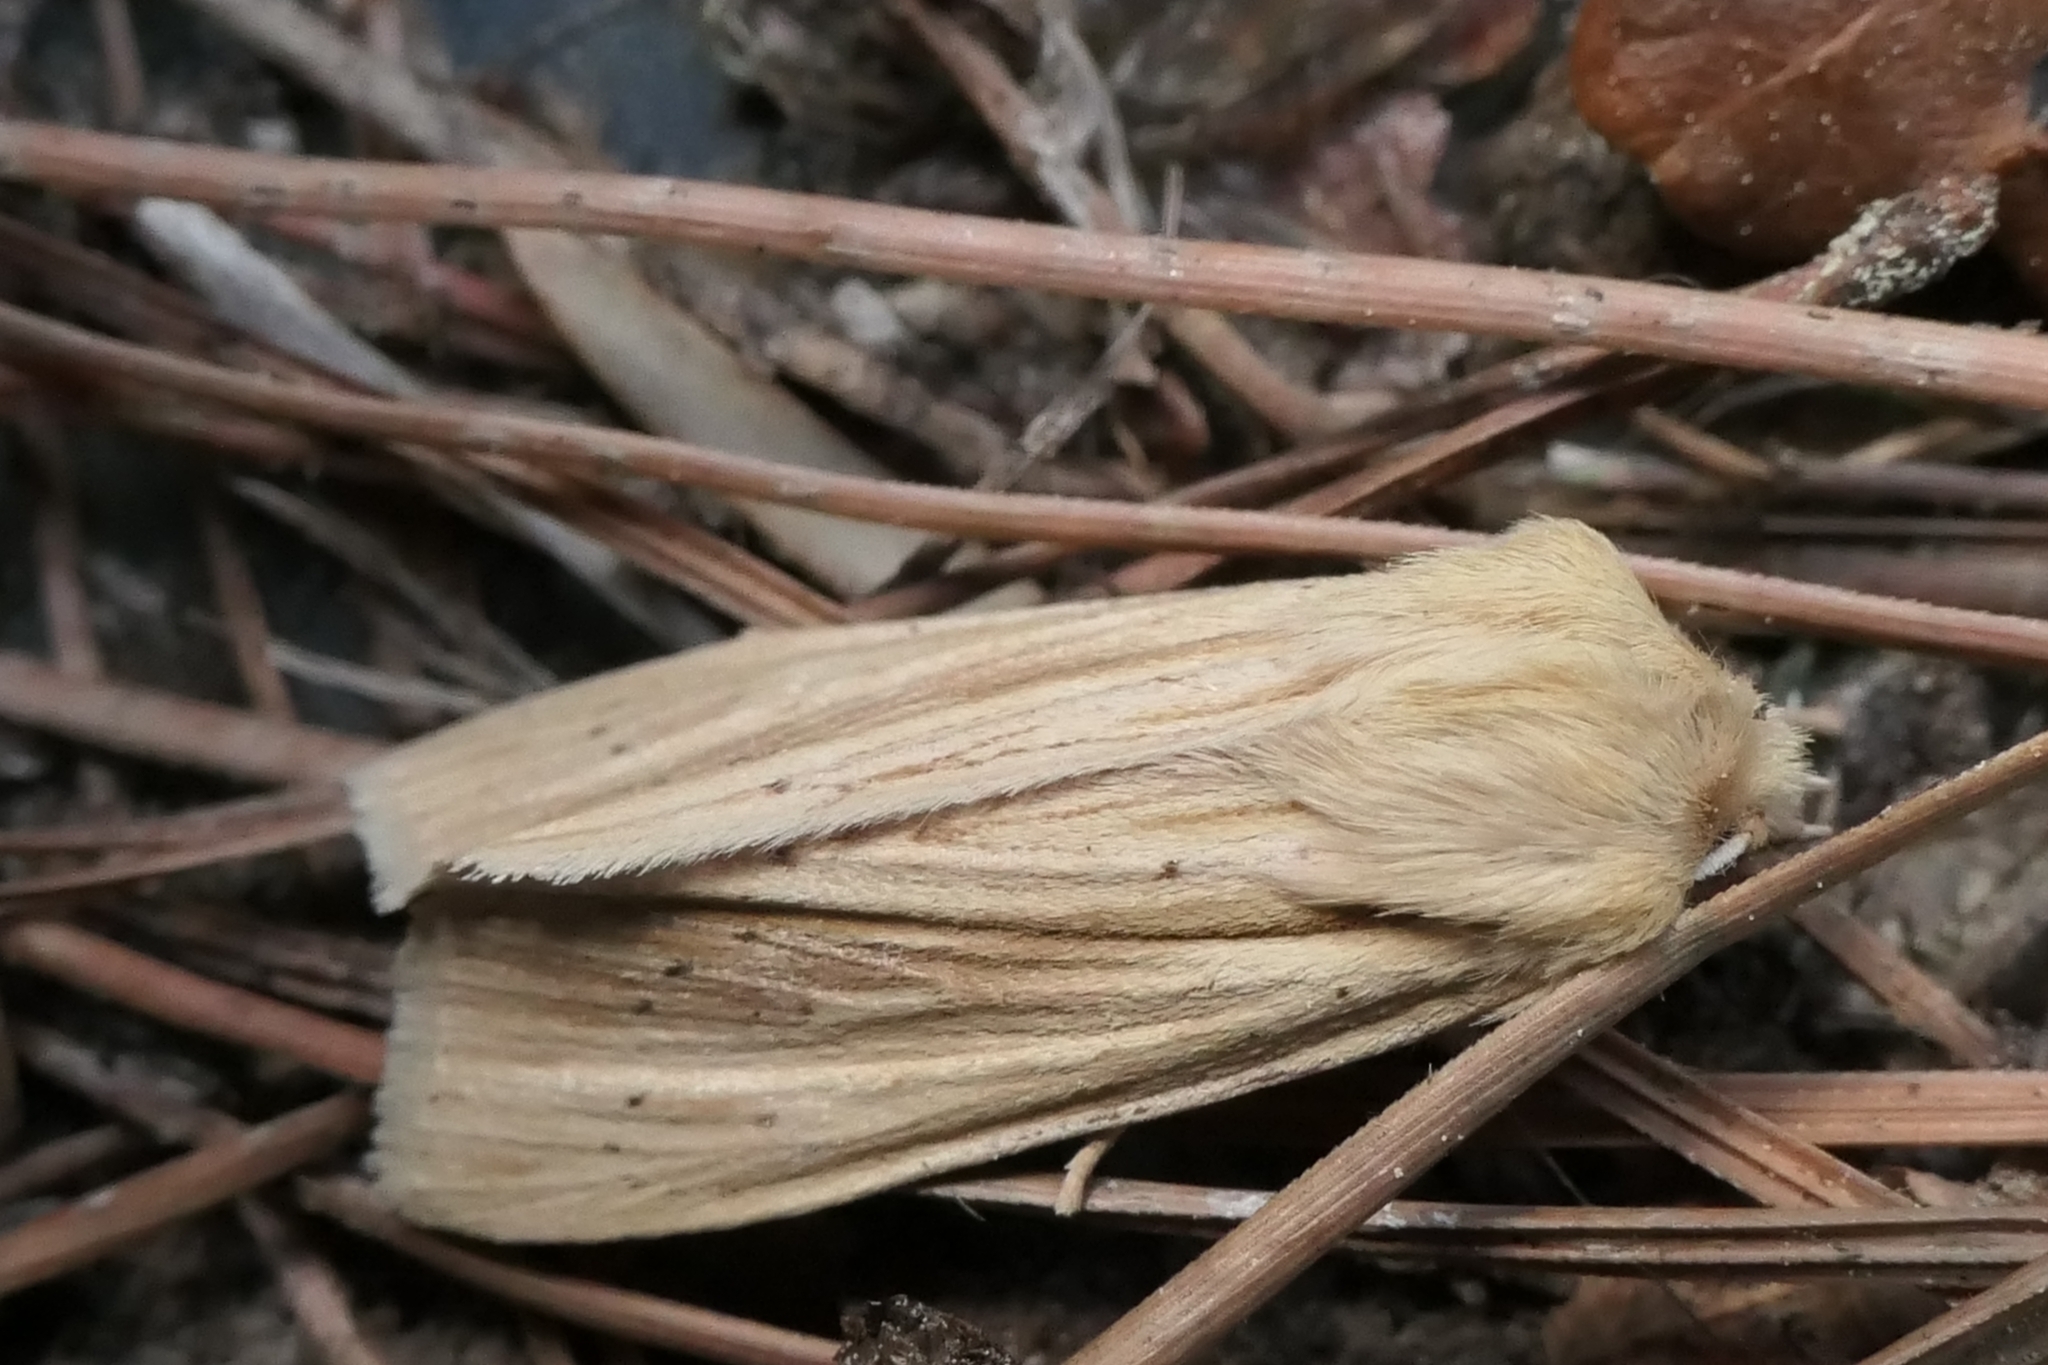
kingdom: Animalia
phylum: Arthropoda
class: Insecta
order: Lepidoptera
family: Noctuidae
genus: Ichneutica
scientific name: Ichneutica semivittata
